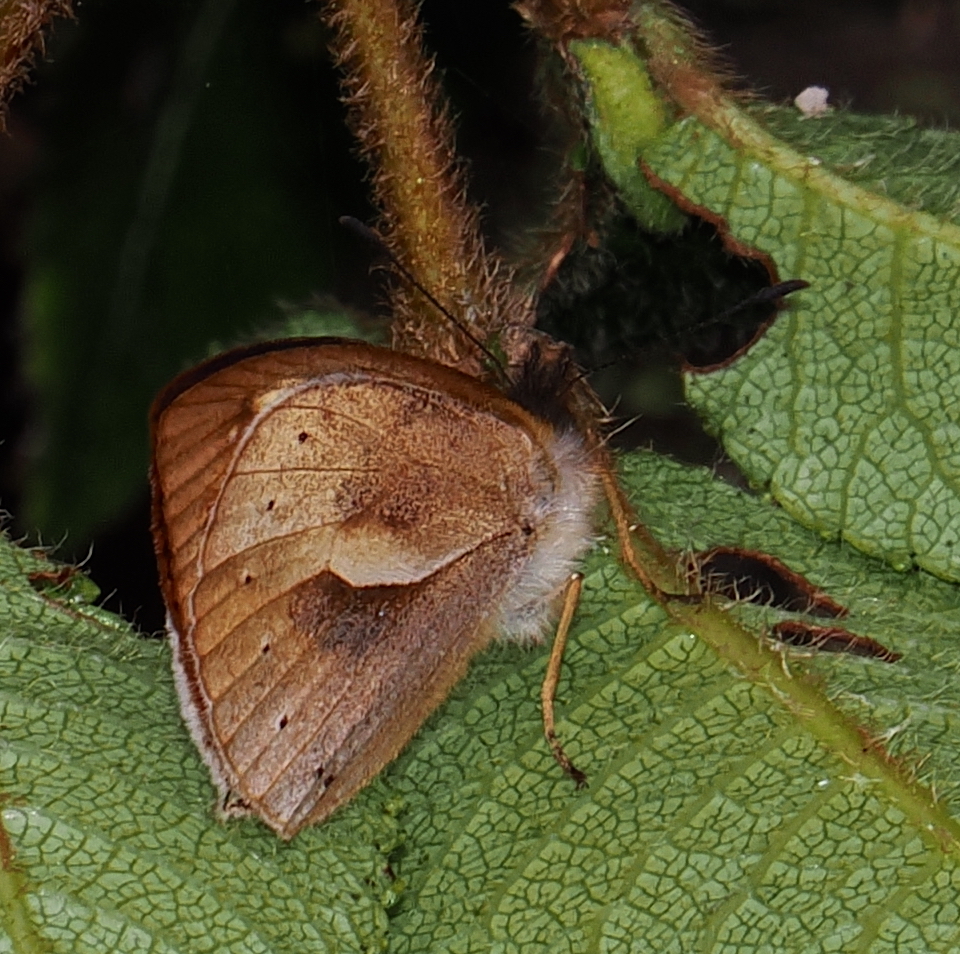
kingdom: Animalia
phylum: Arthropoda
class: Insecta
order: Lepidoptera
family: Nymphalidae
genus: Lymanopoda
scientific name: Lymanopoda nivea
